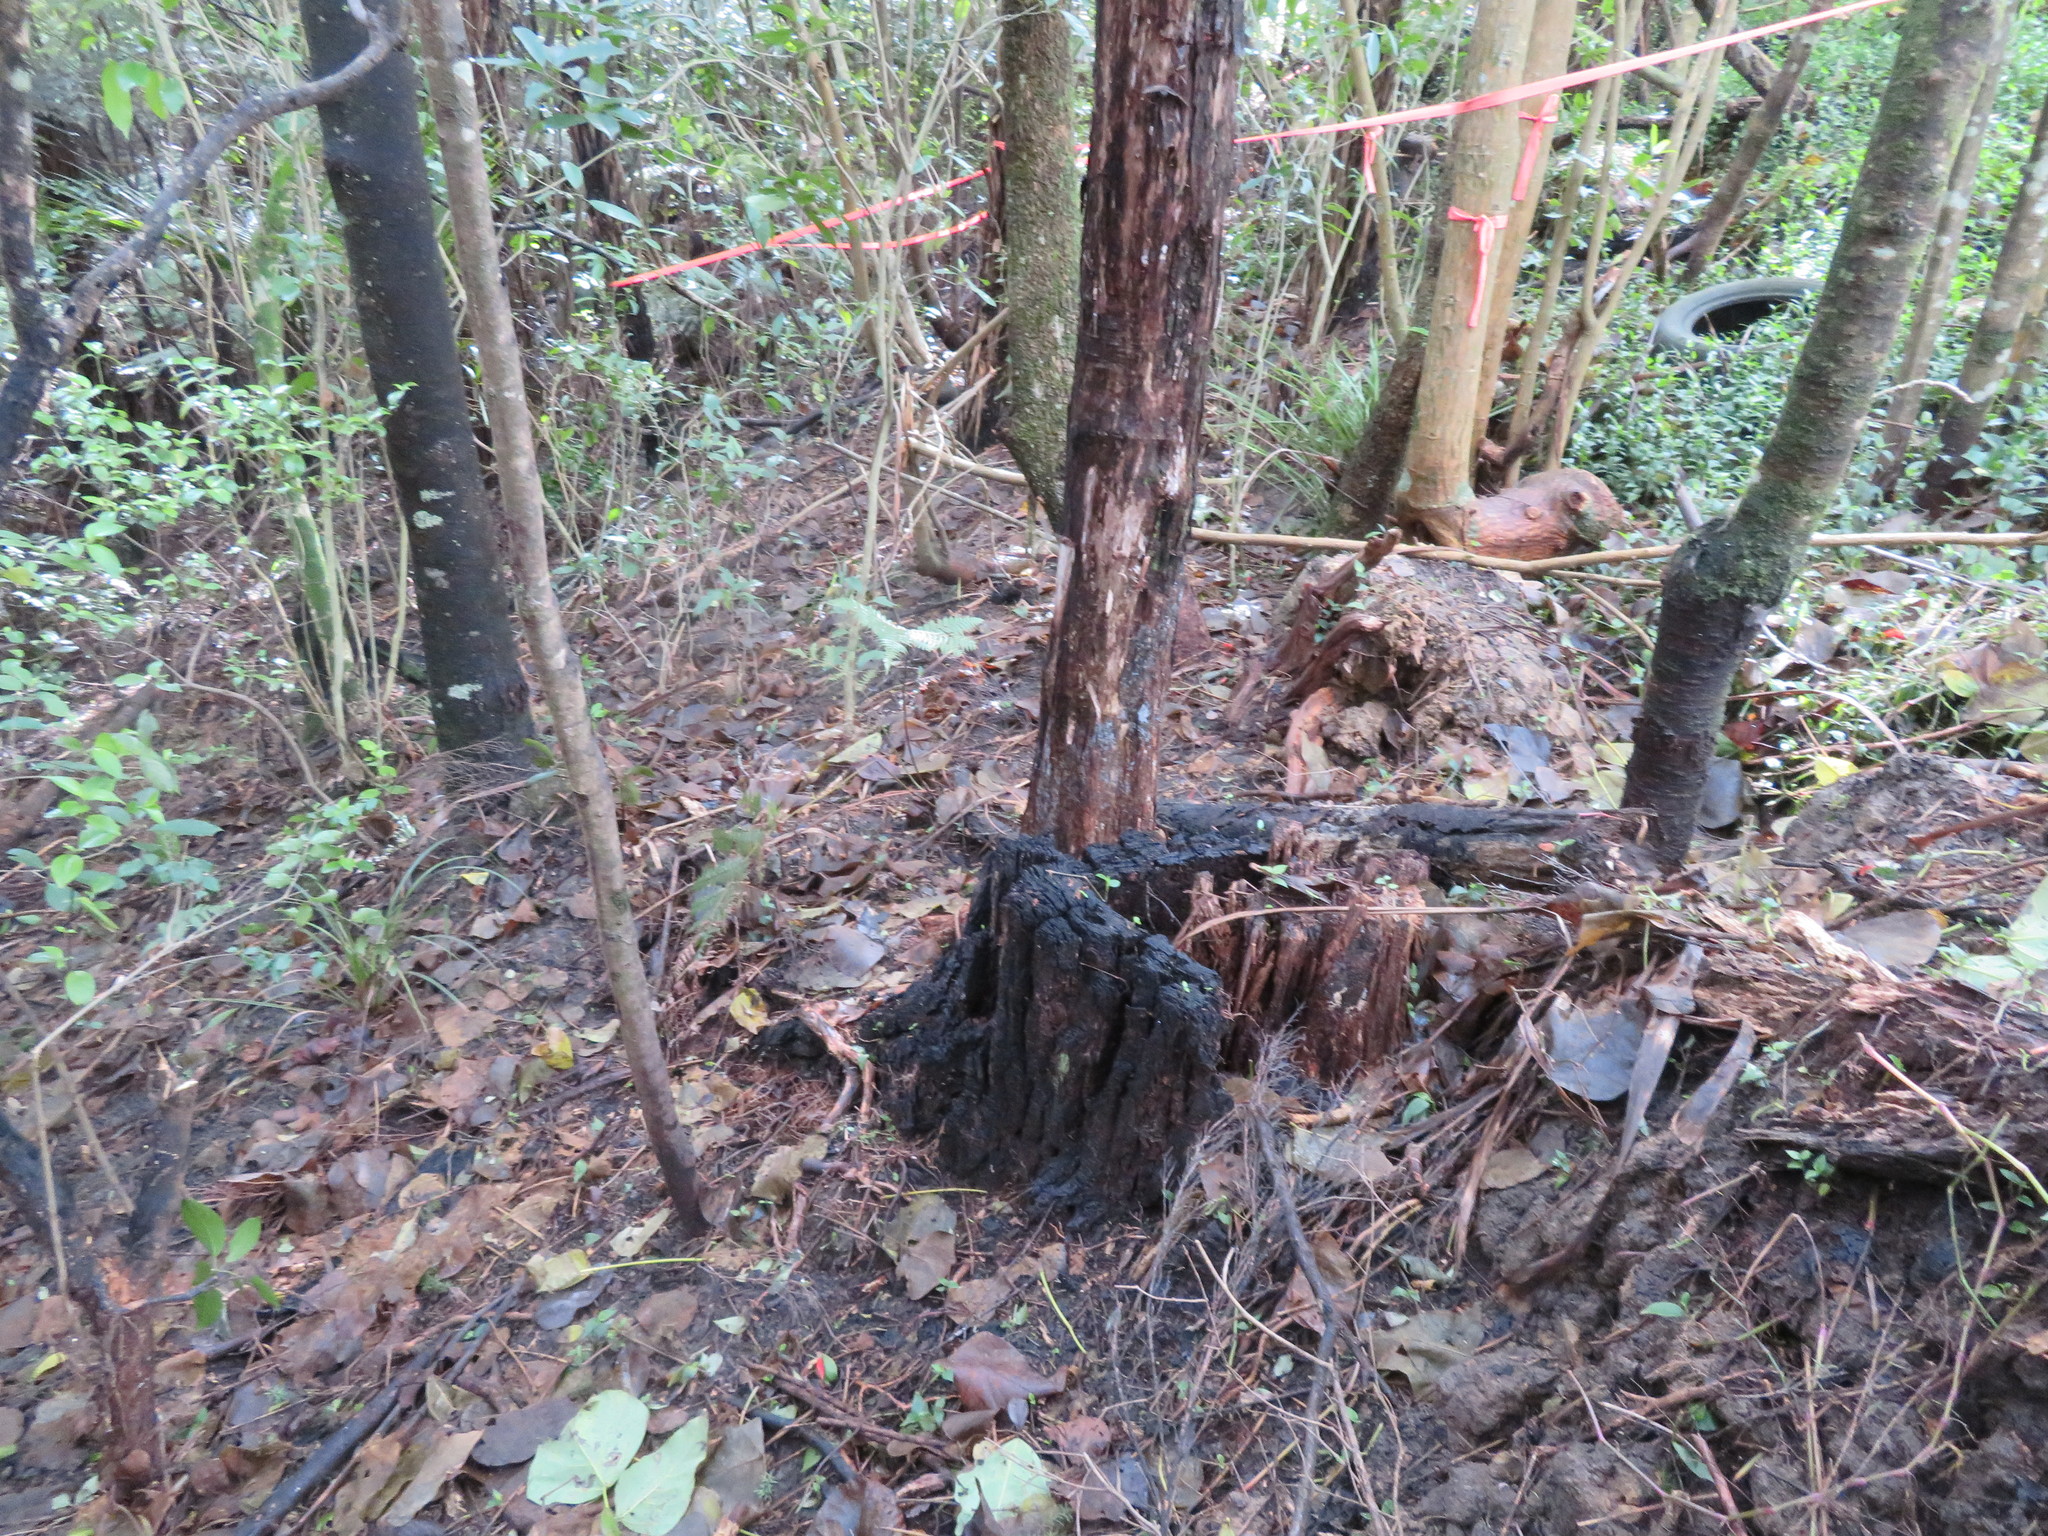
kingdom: Plantae
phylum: Tracheophyta
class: Liliopsida
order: Commelinales
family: Commelinaceae
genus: Tradescantia
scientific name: Tradescantia fluminensis
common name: Wandering-jew
